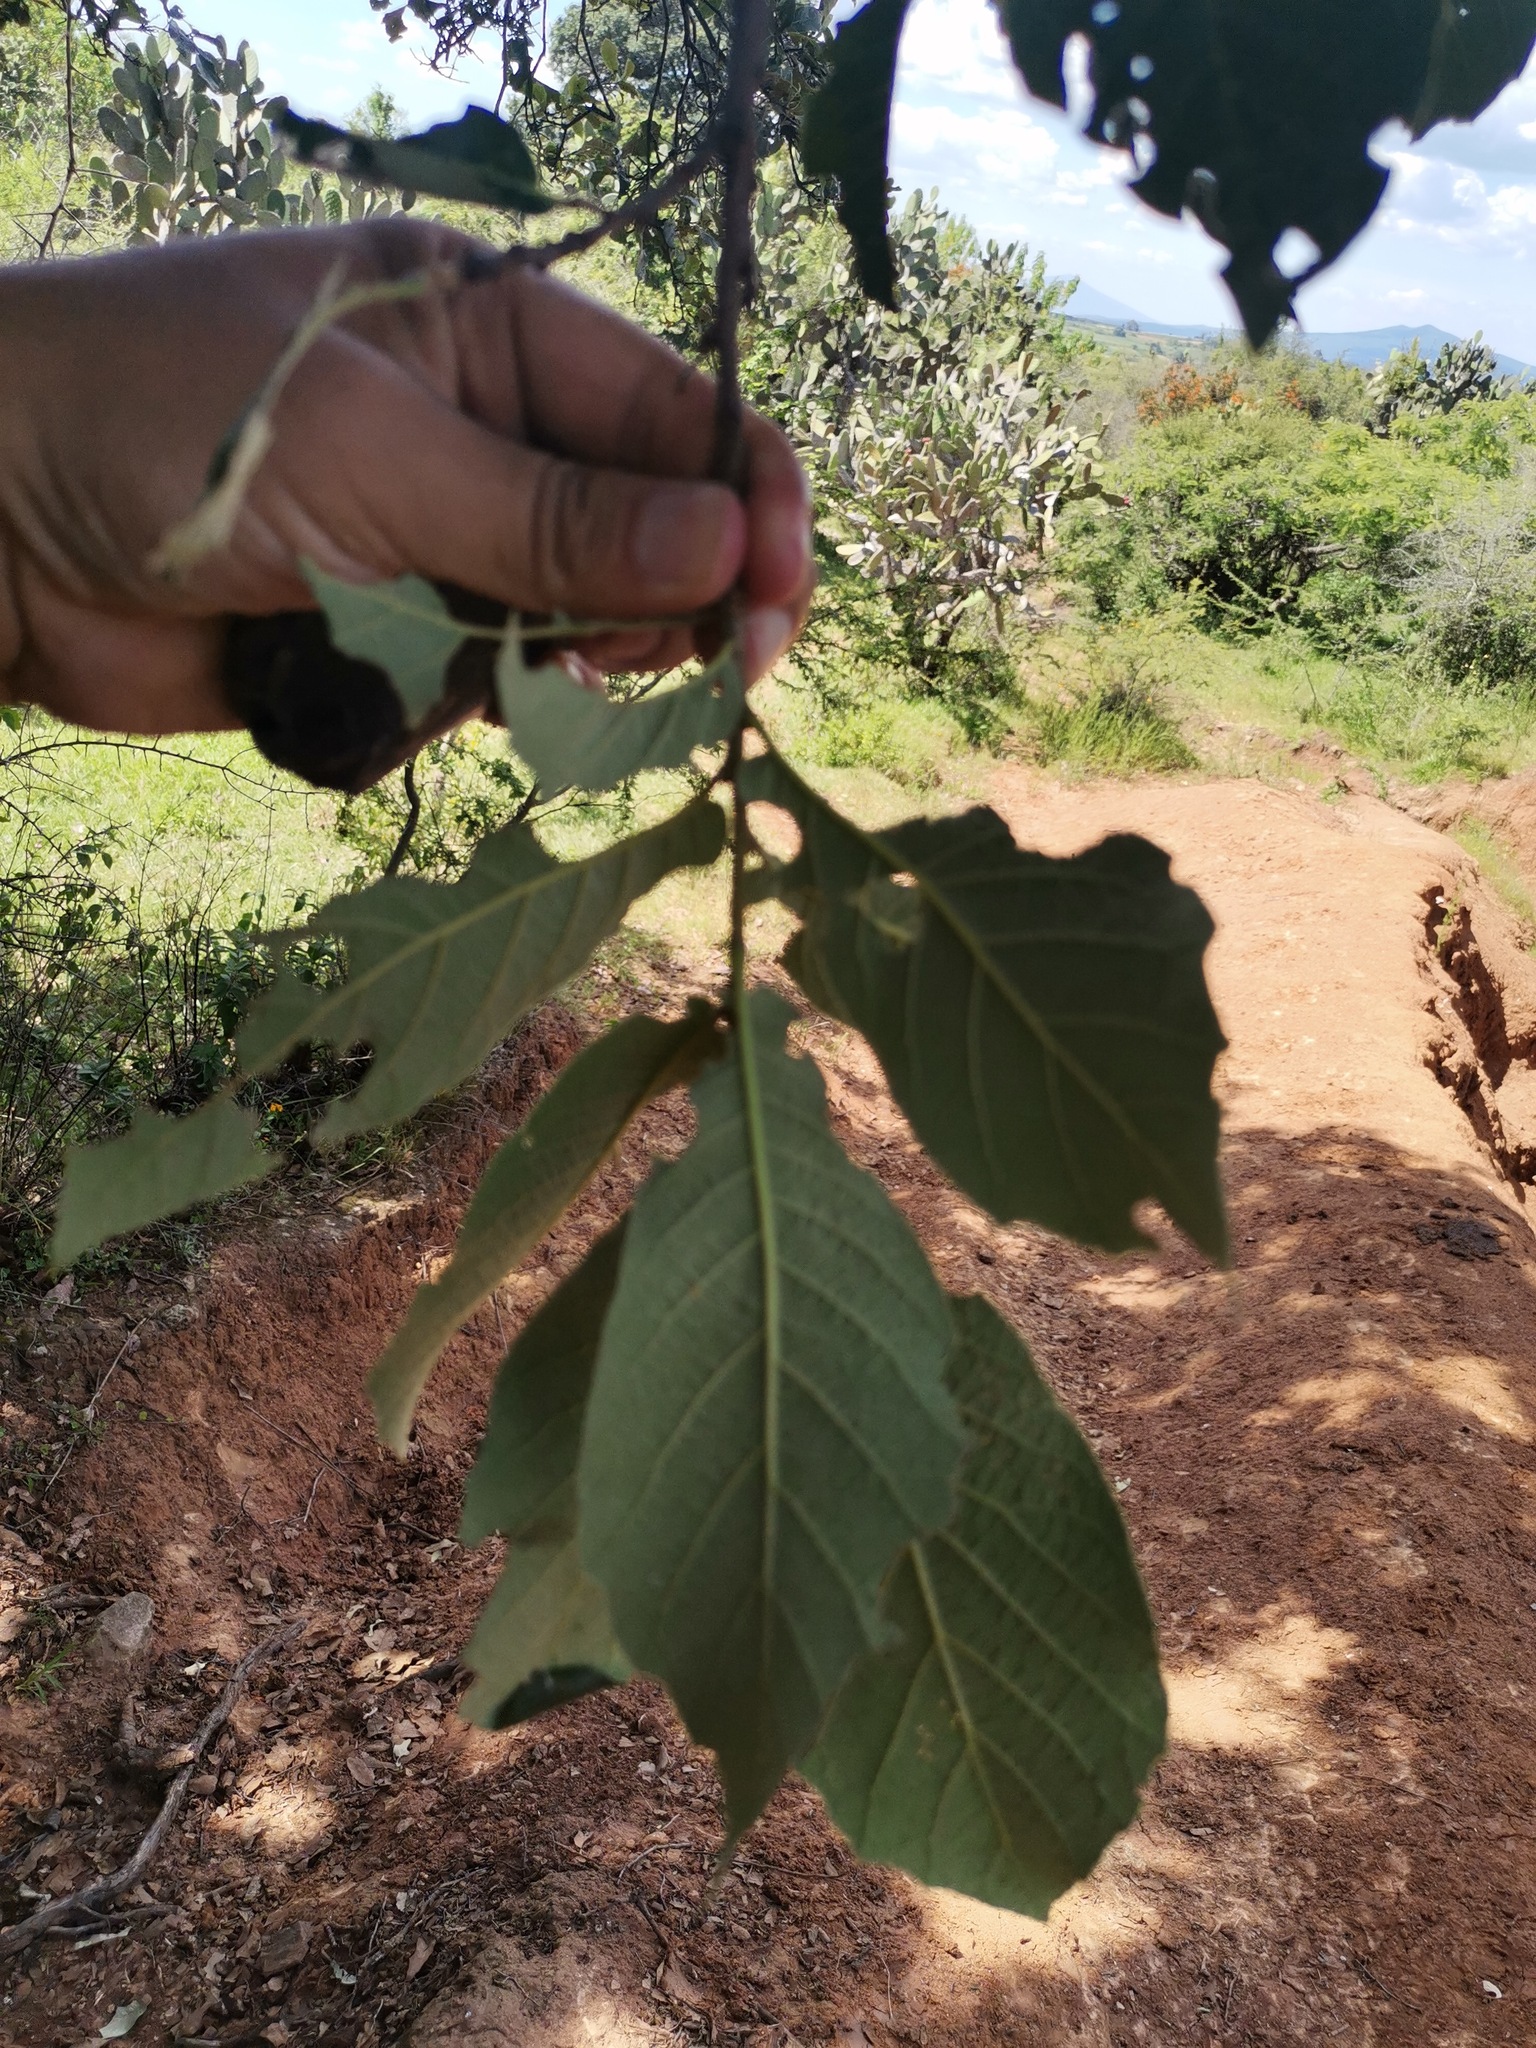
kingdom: Plantae
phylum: Tracheophyta
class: Magnoliopsida
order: Fagales
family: Fagaceae
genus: Quercus
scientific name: Quercus
